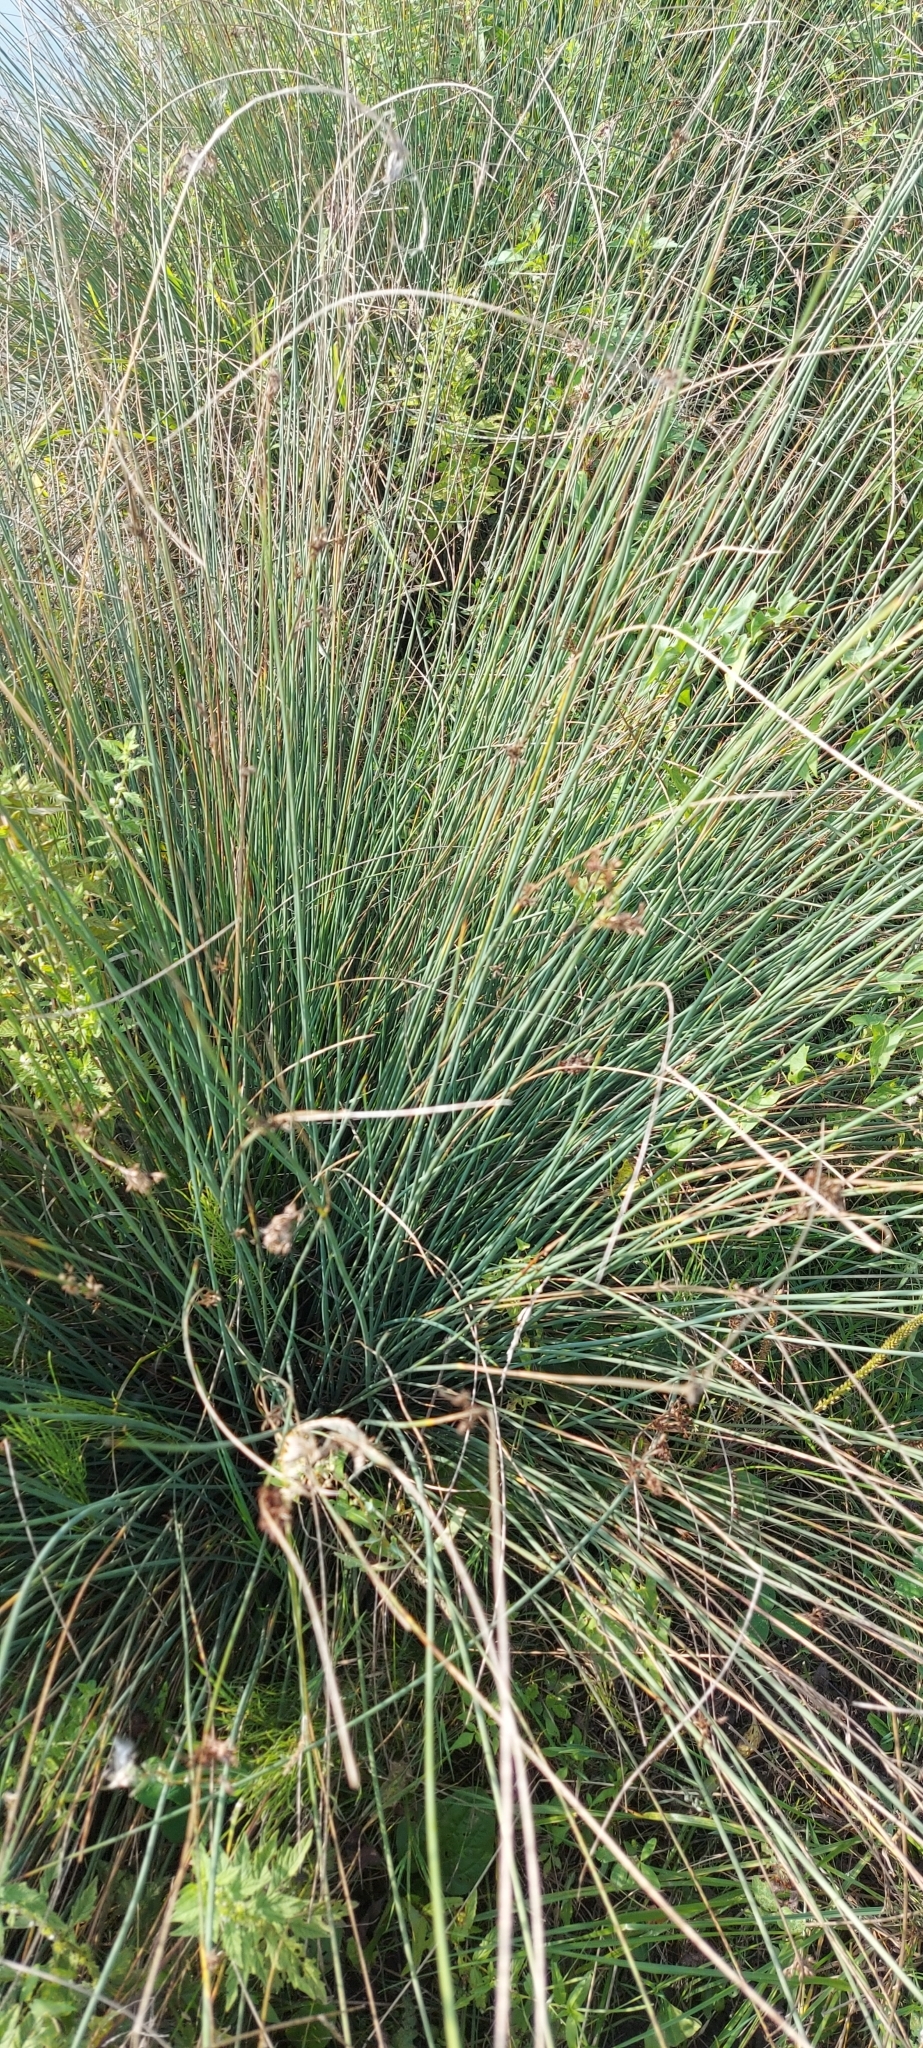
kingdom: Plantae
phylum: Tracheophyta
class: Liliopsida
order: Poales
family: Juncaceae
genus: Juncus
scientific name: Juncus inflexus
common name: Hard rush
